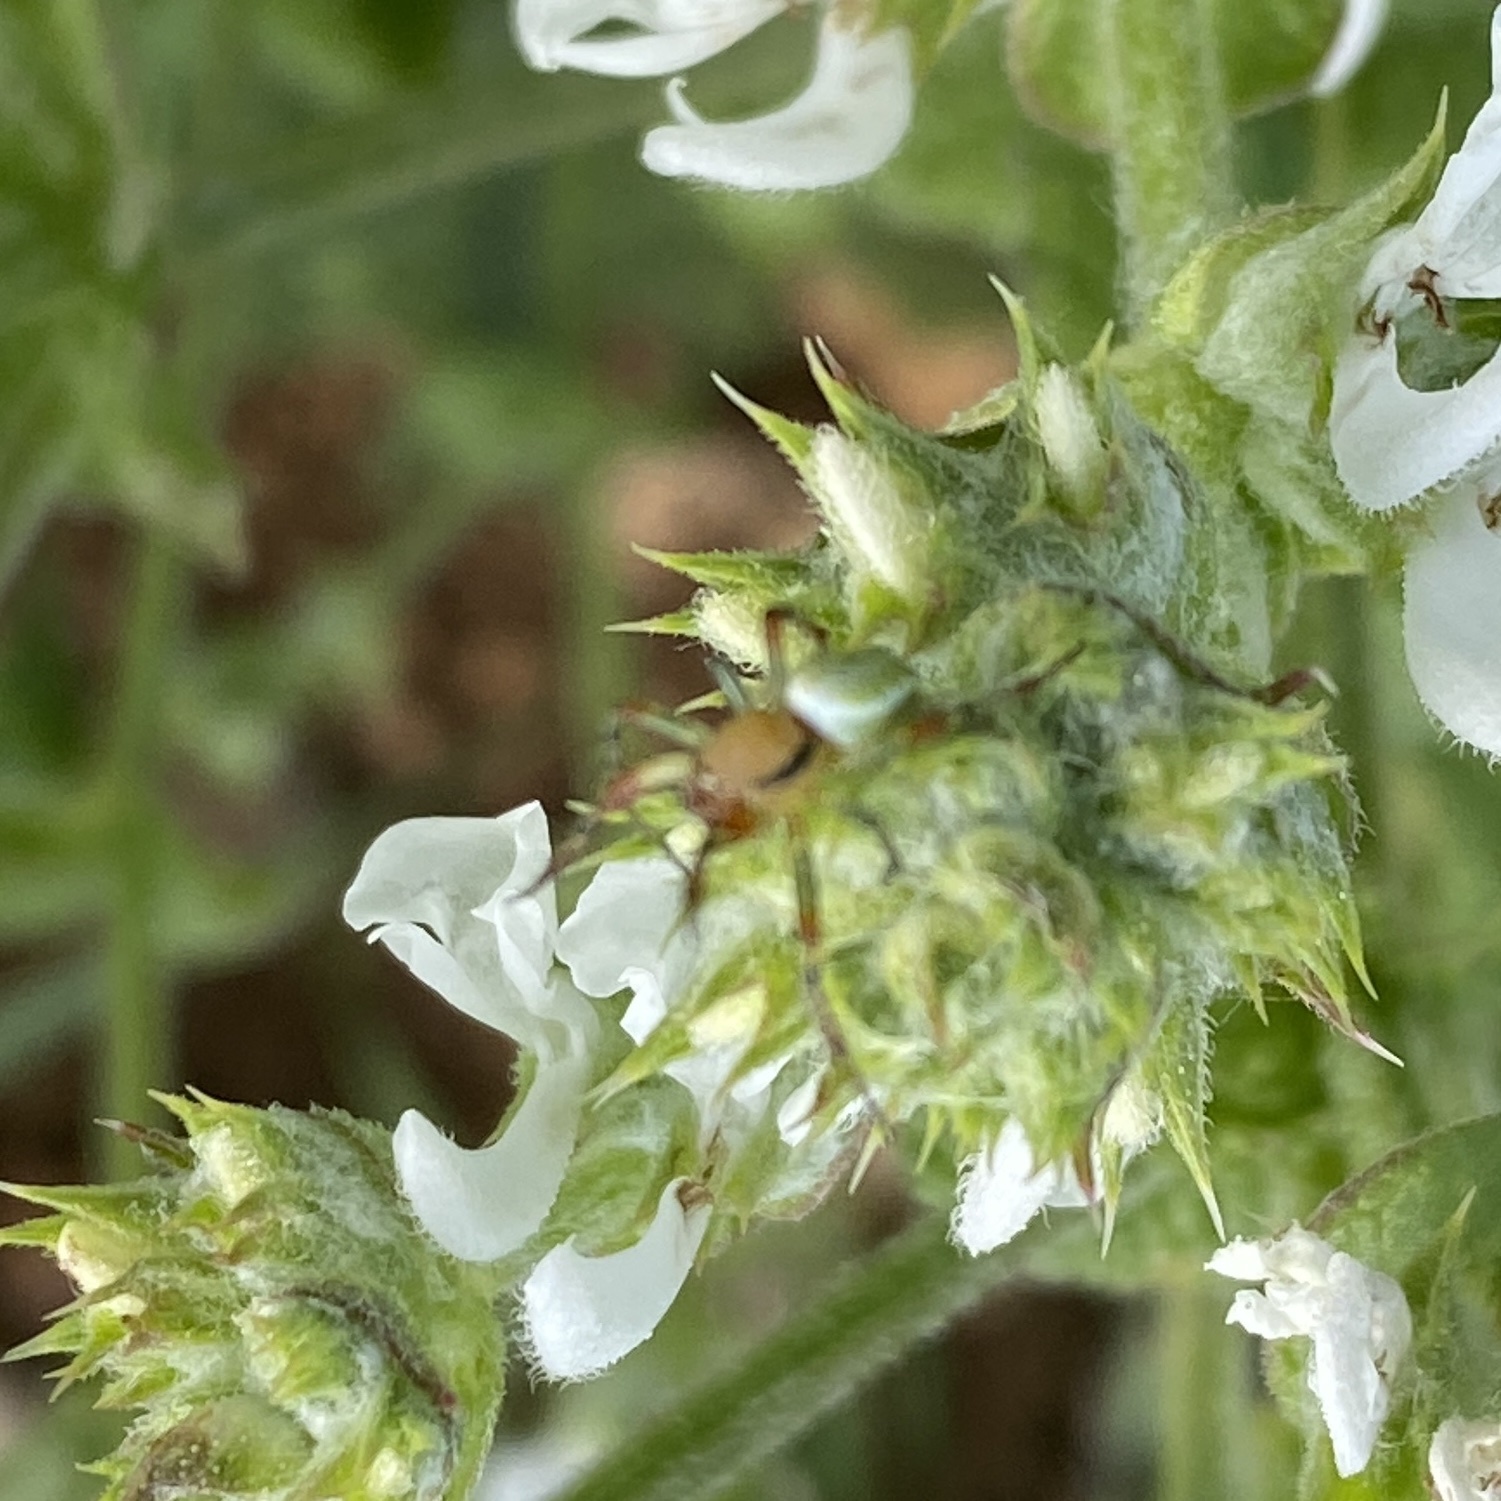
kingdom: Animalia
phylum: Arthropoda
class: Arachnida
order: Araneae
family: Araneidae
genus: Araniella
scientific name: Araniella
